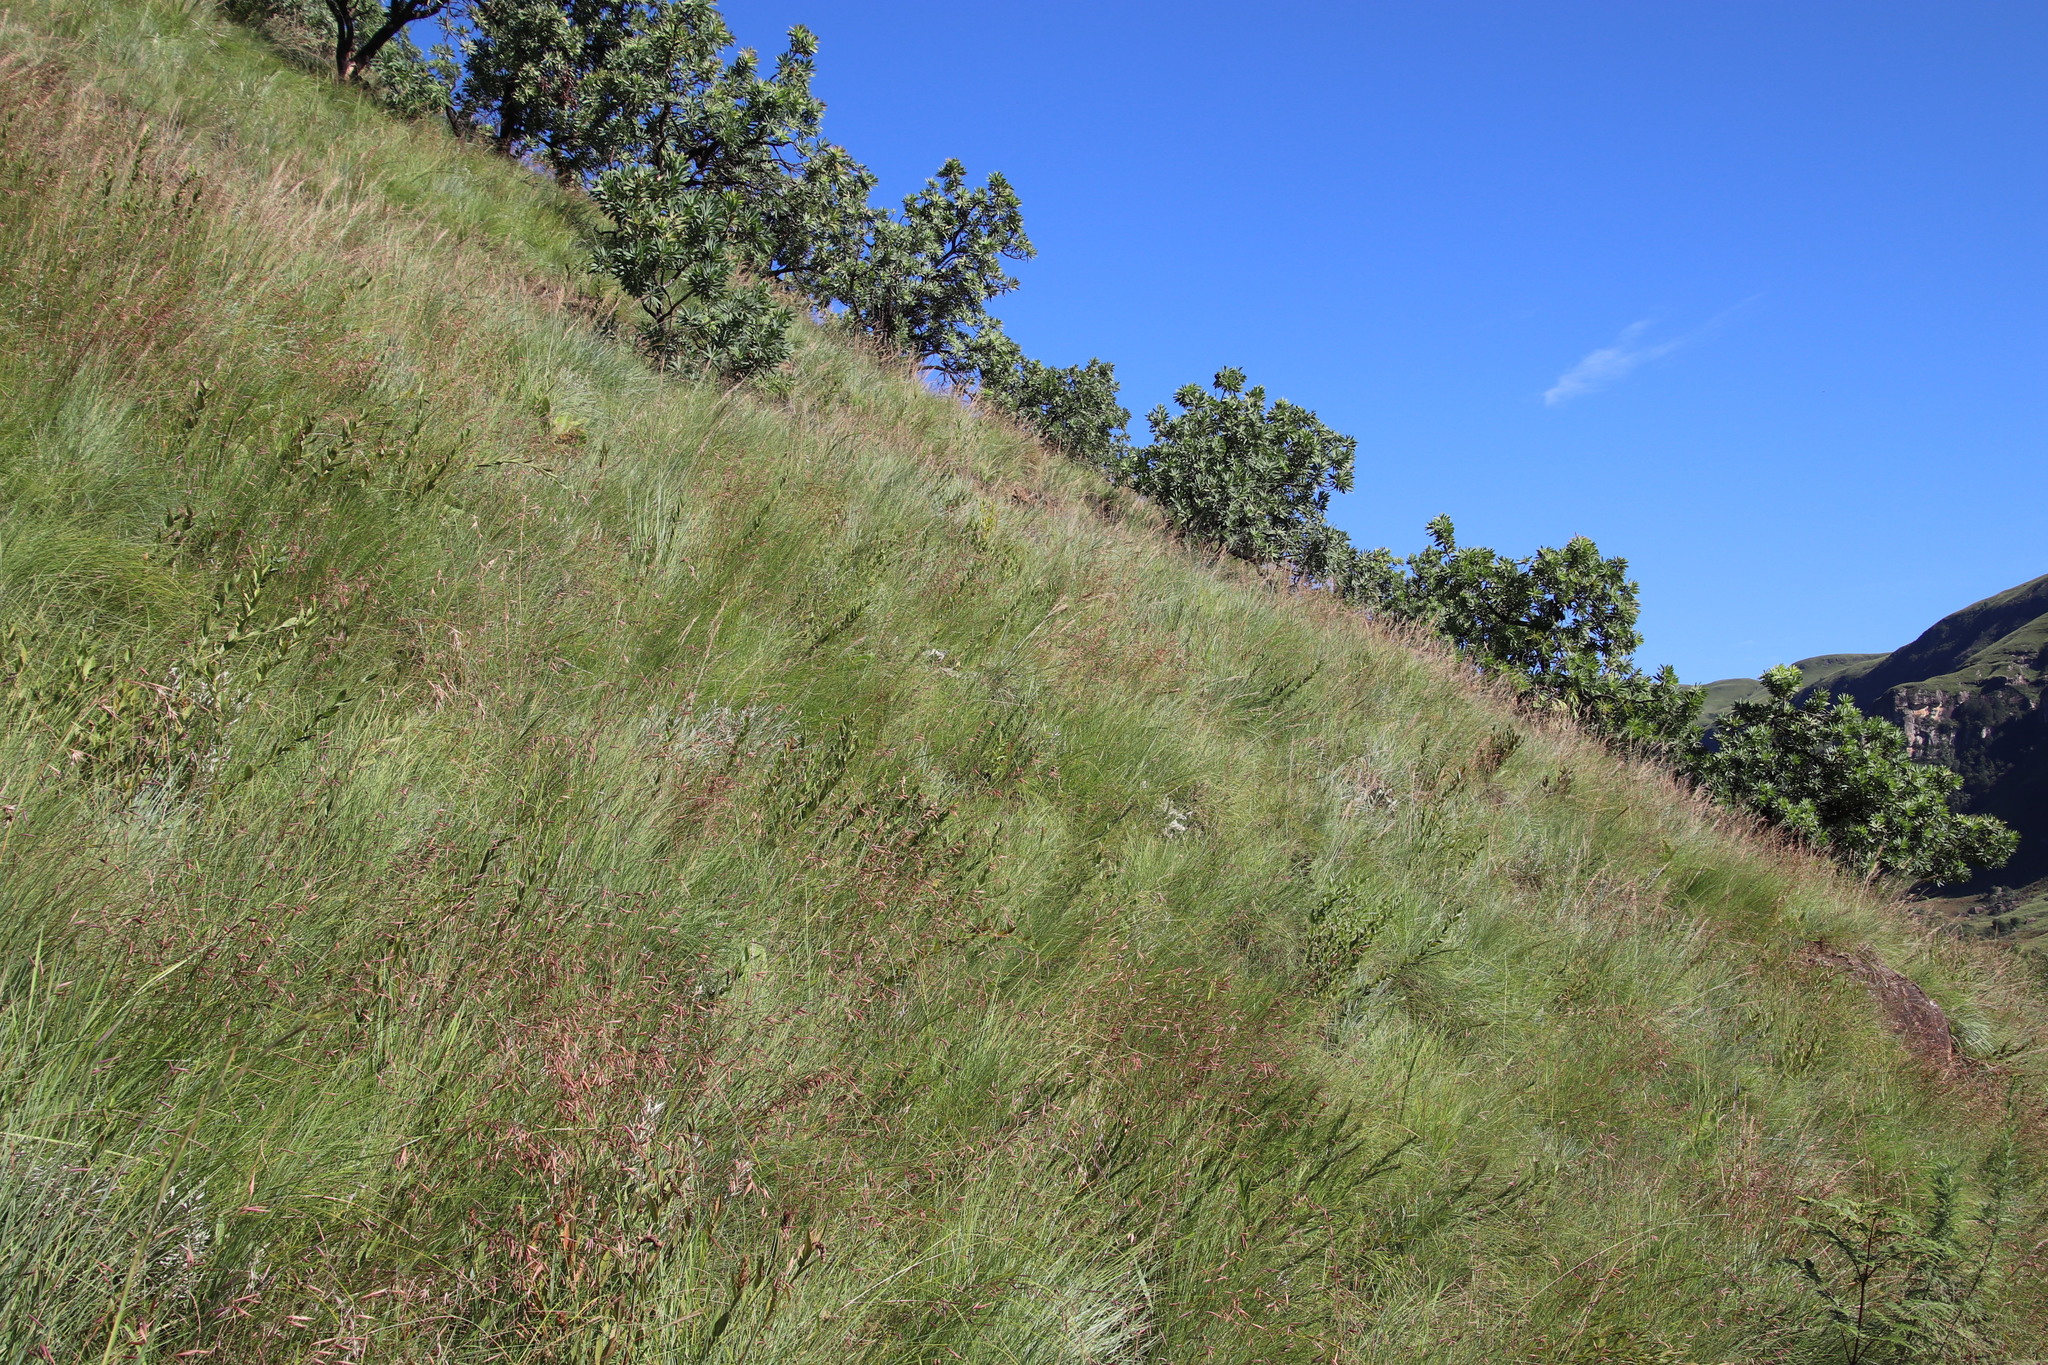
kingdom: Plantae
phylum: Tracheophyta
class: Liliopsida
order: Poales
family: Poaceae
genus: Themeda
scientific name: Themeda triandra
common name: Kangaroo grass
